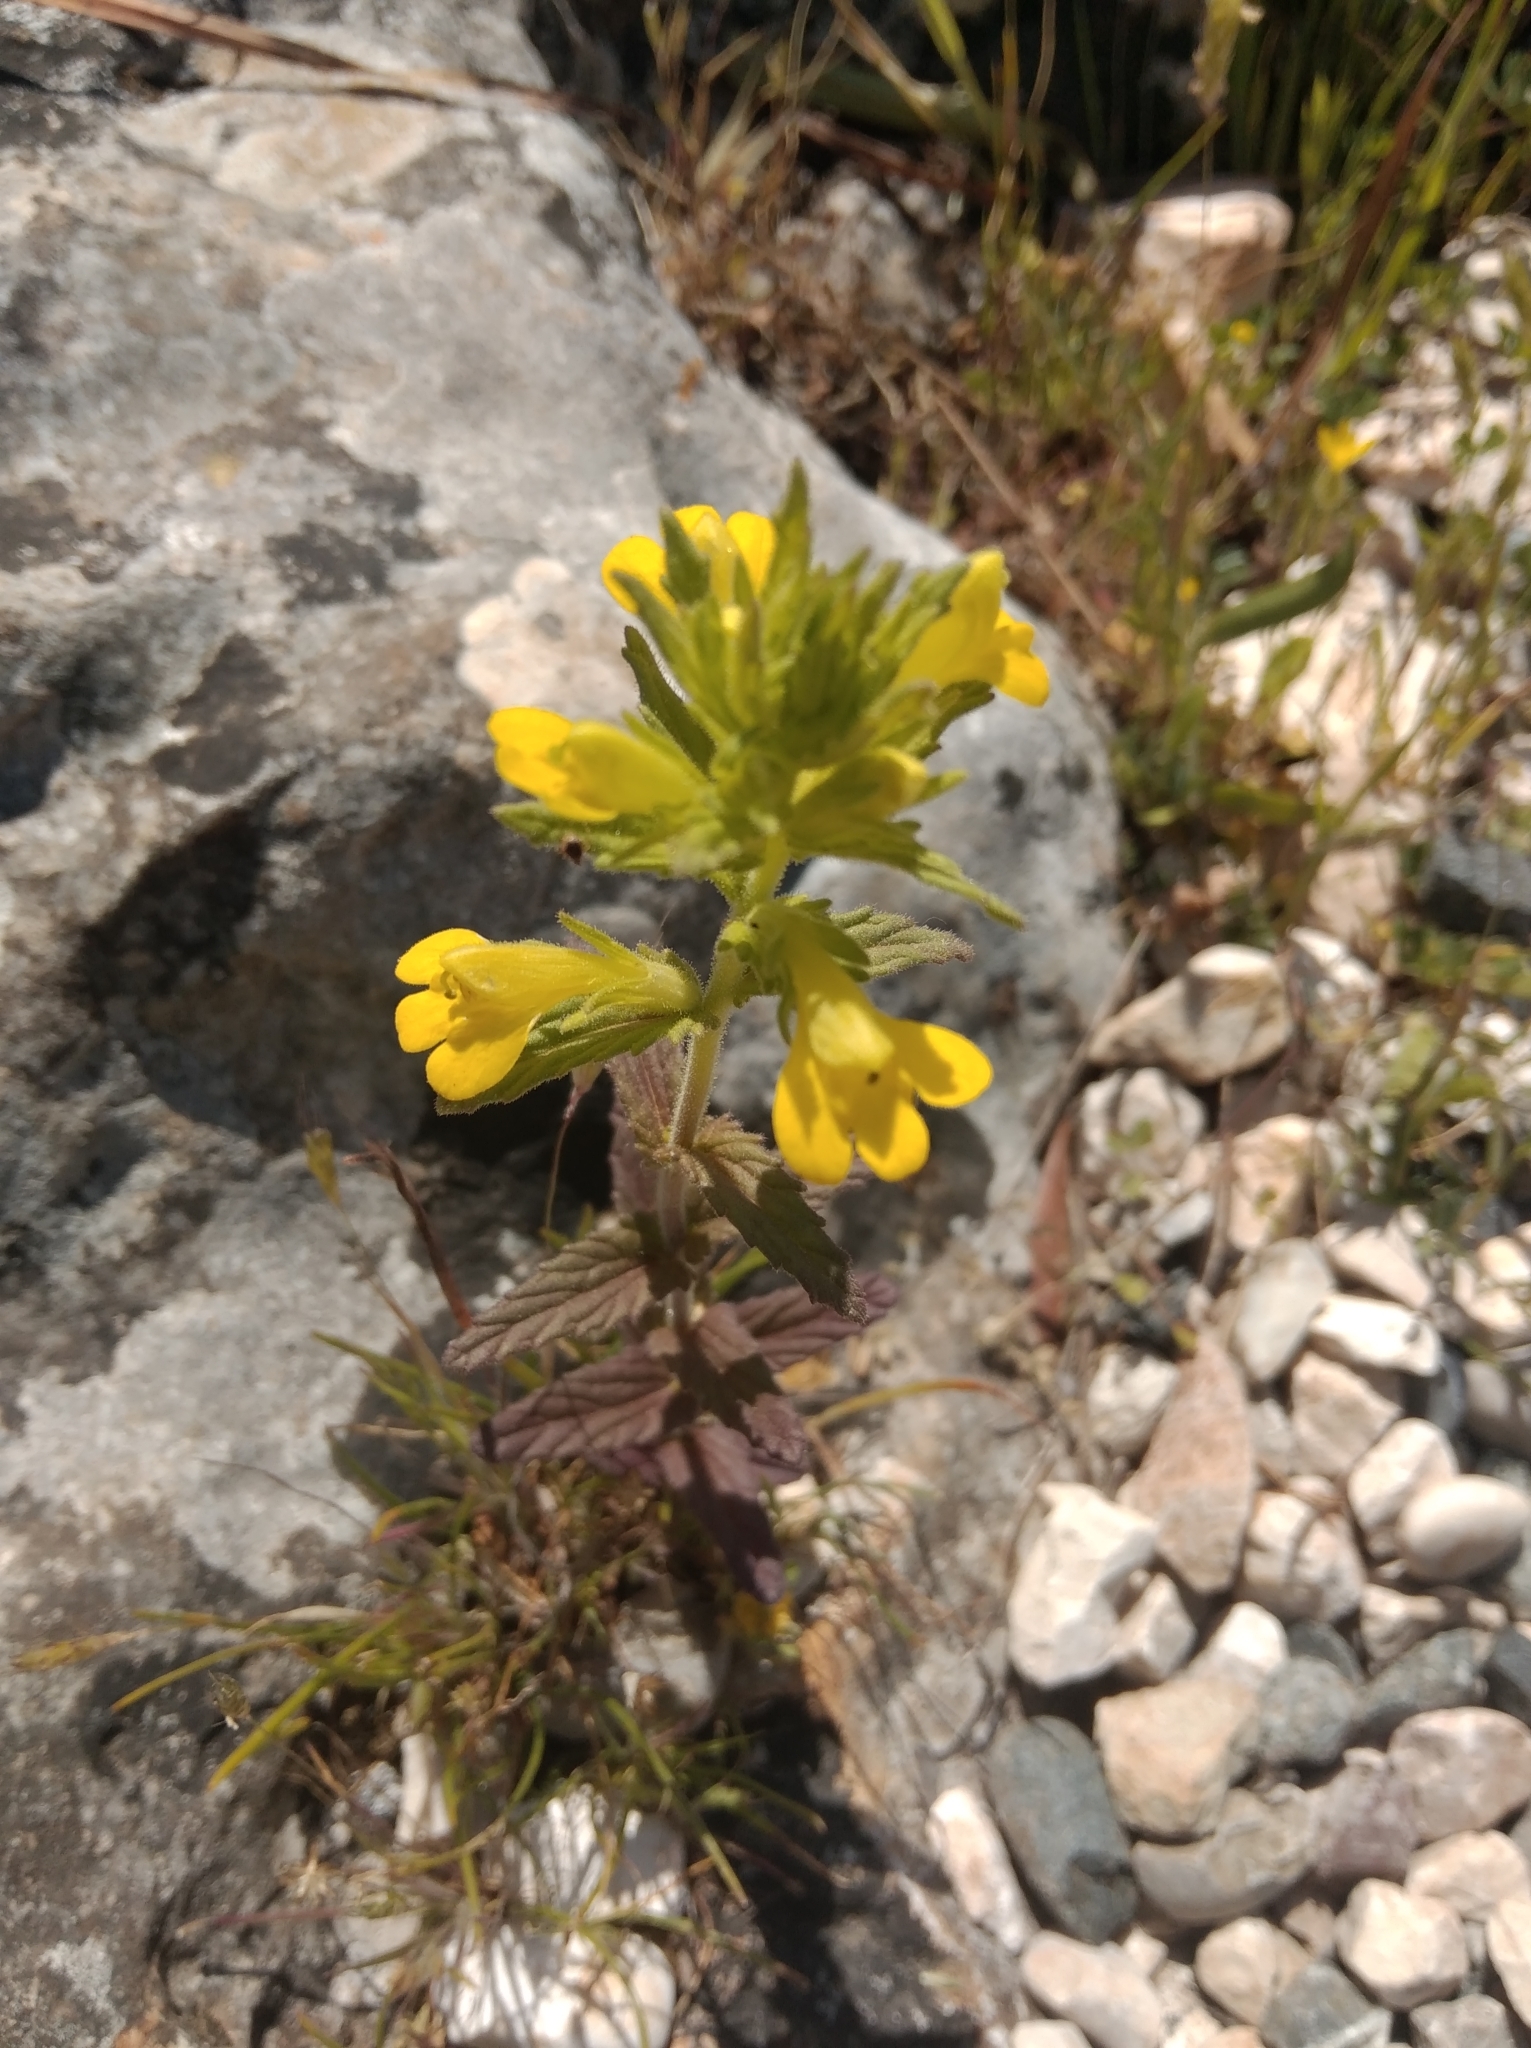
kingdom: Plantae
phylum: Tracheophyta
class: Magnoliopsida
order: Lamiales
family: Orobanchaceae
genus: Bellardia
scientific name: Bellardia viscosa
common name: Sticky parentucellia
